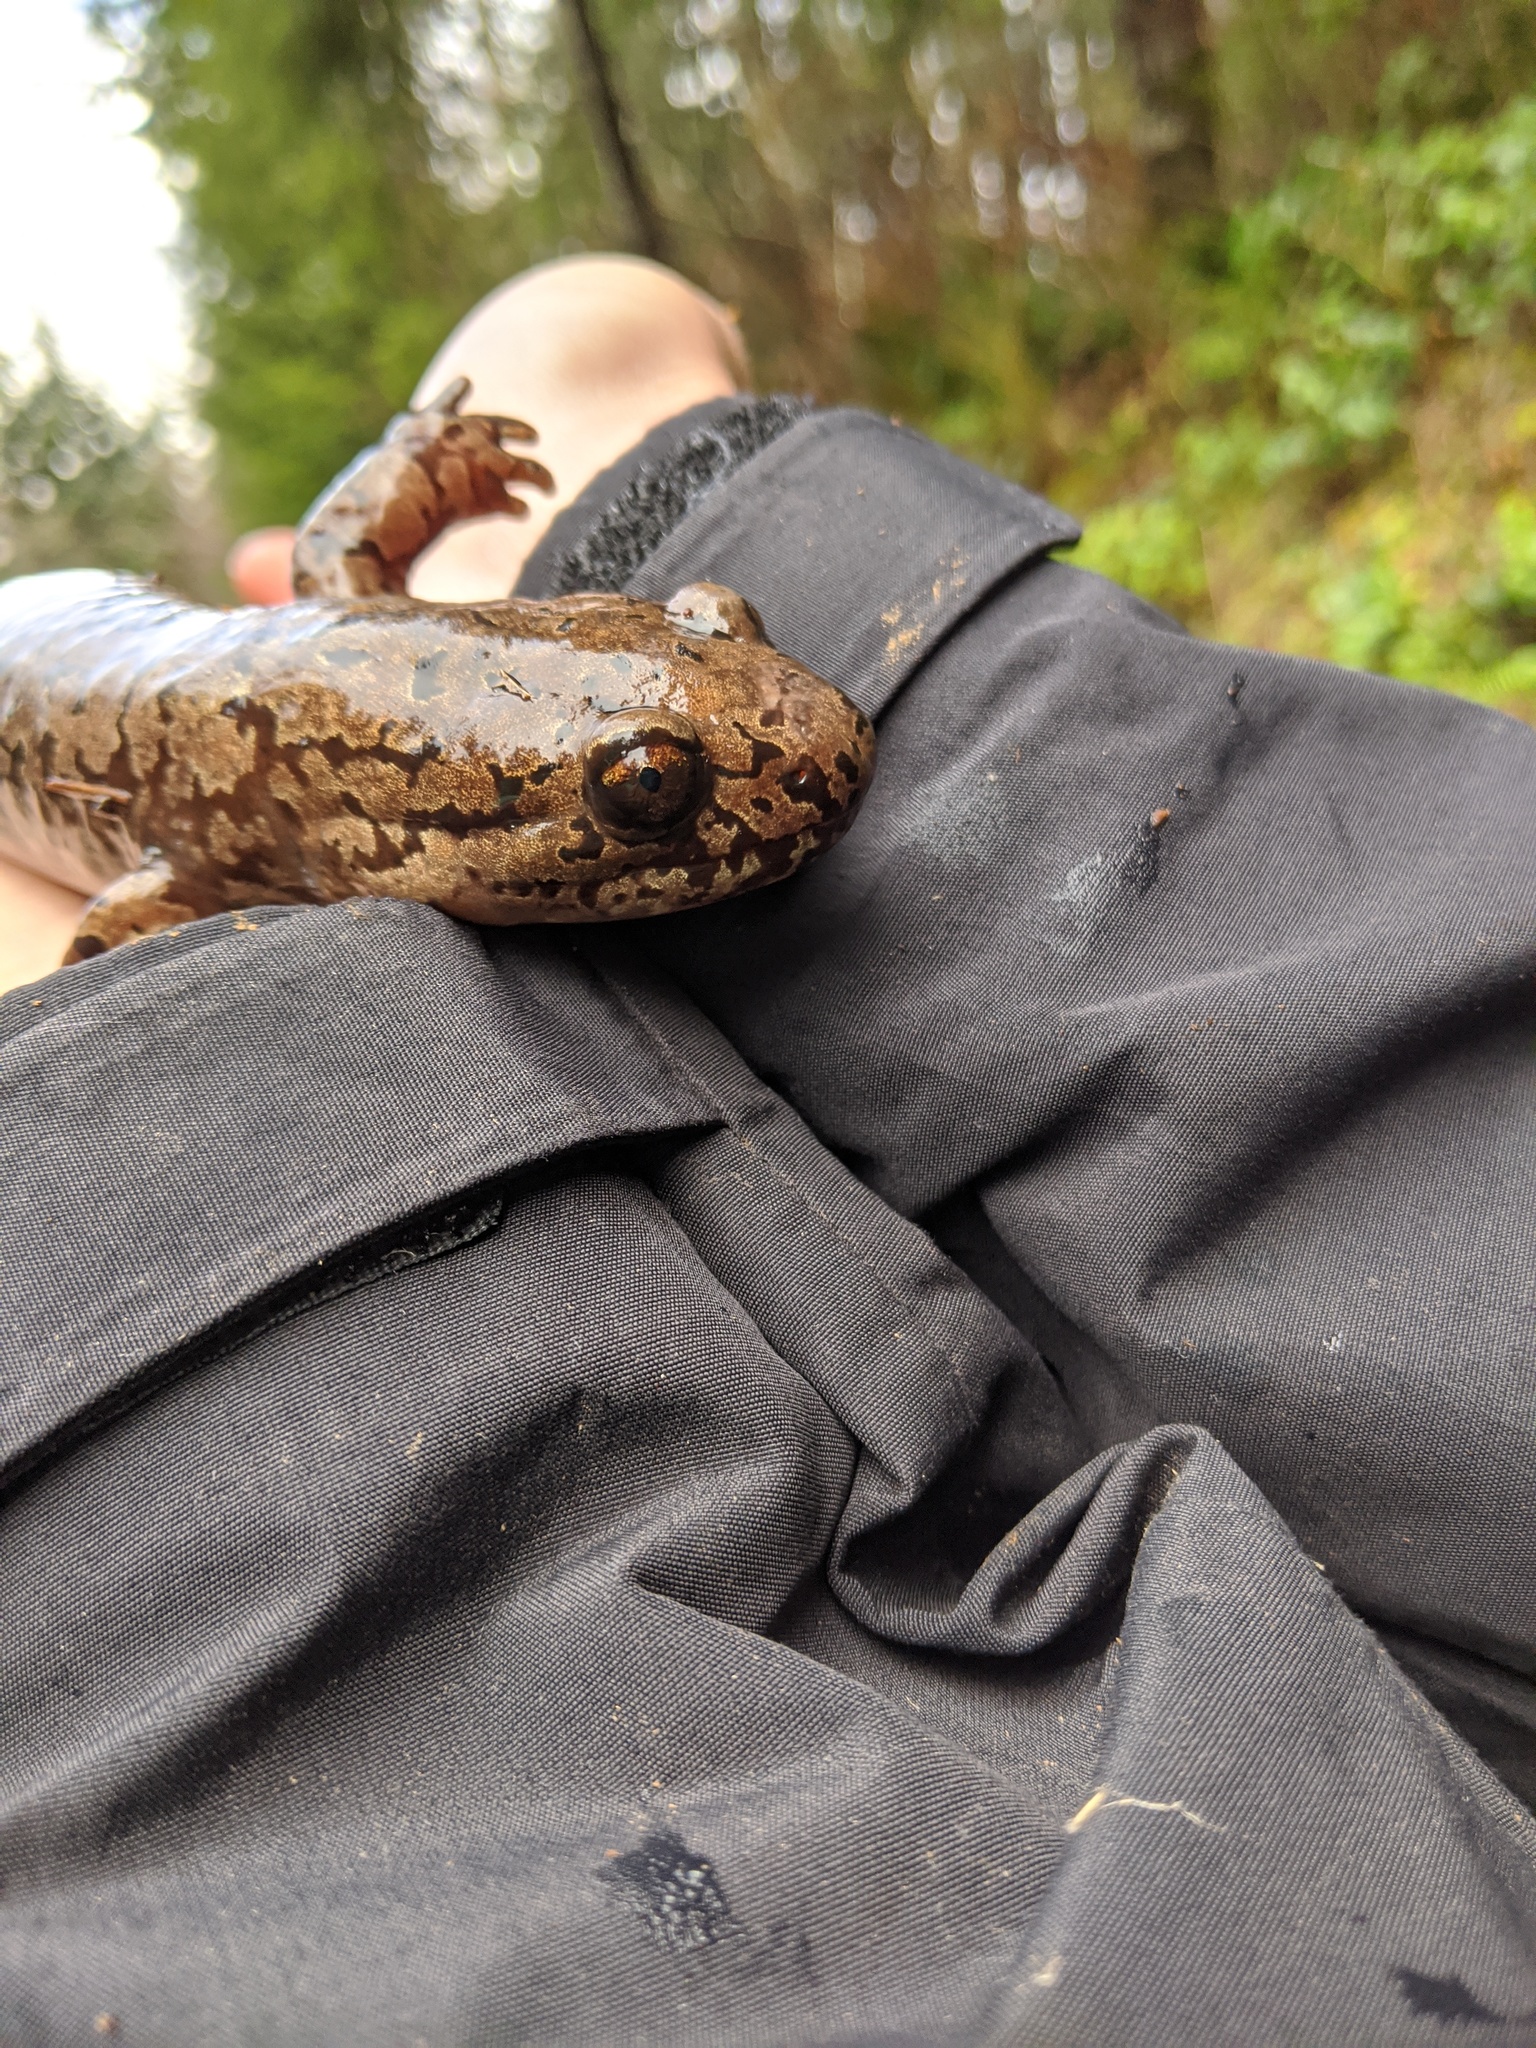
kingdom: Animalia
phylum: Chordata
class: Amphibia
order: Caudata
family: Ambystomatidae
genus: Dicamptodon
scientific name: Dicamptodon tenebrosus
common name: Coastal giant salamander
